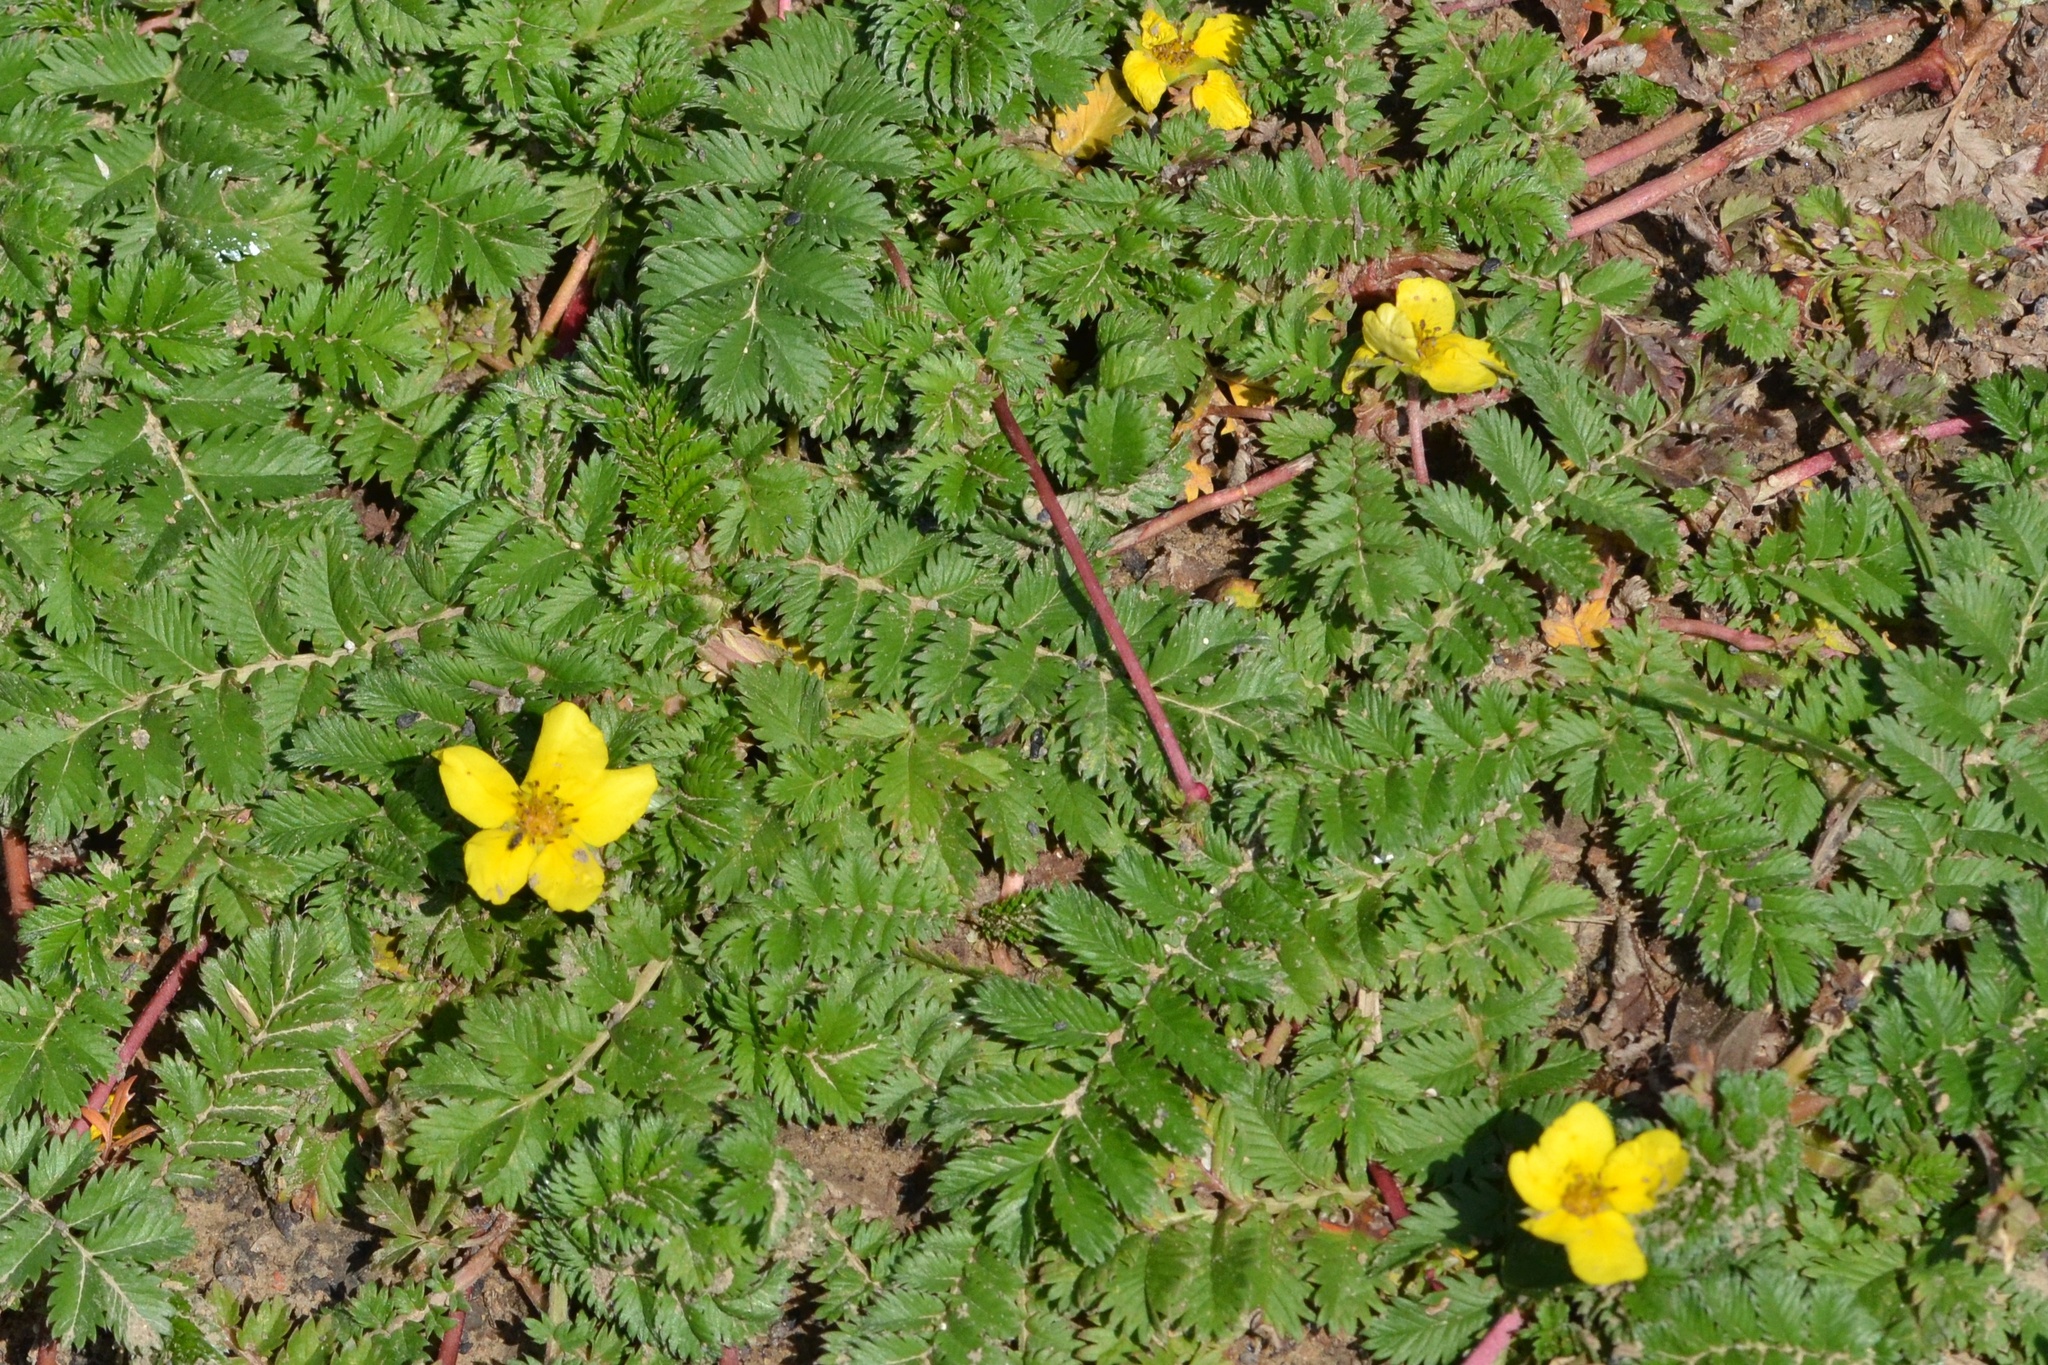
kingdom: Plantae
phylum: Tracheophyta
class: Magnoliopsida
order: Rosales
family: Rosaceae
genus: Argentina
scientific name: Argentina anserina
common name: Common silverweed
